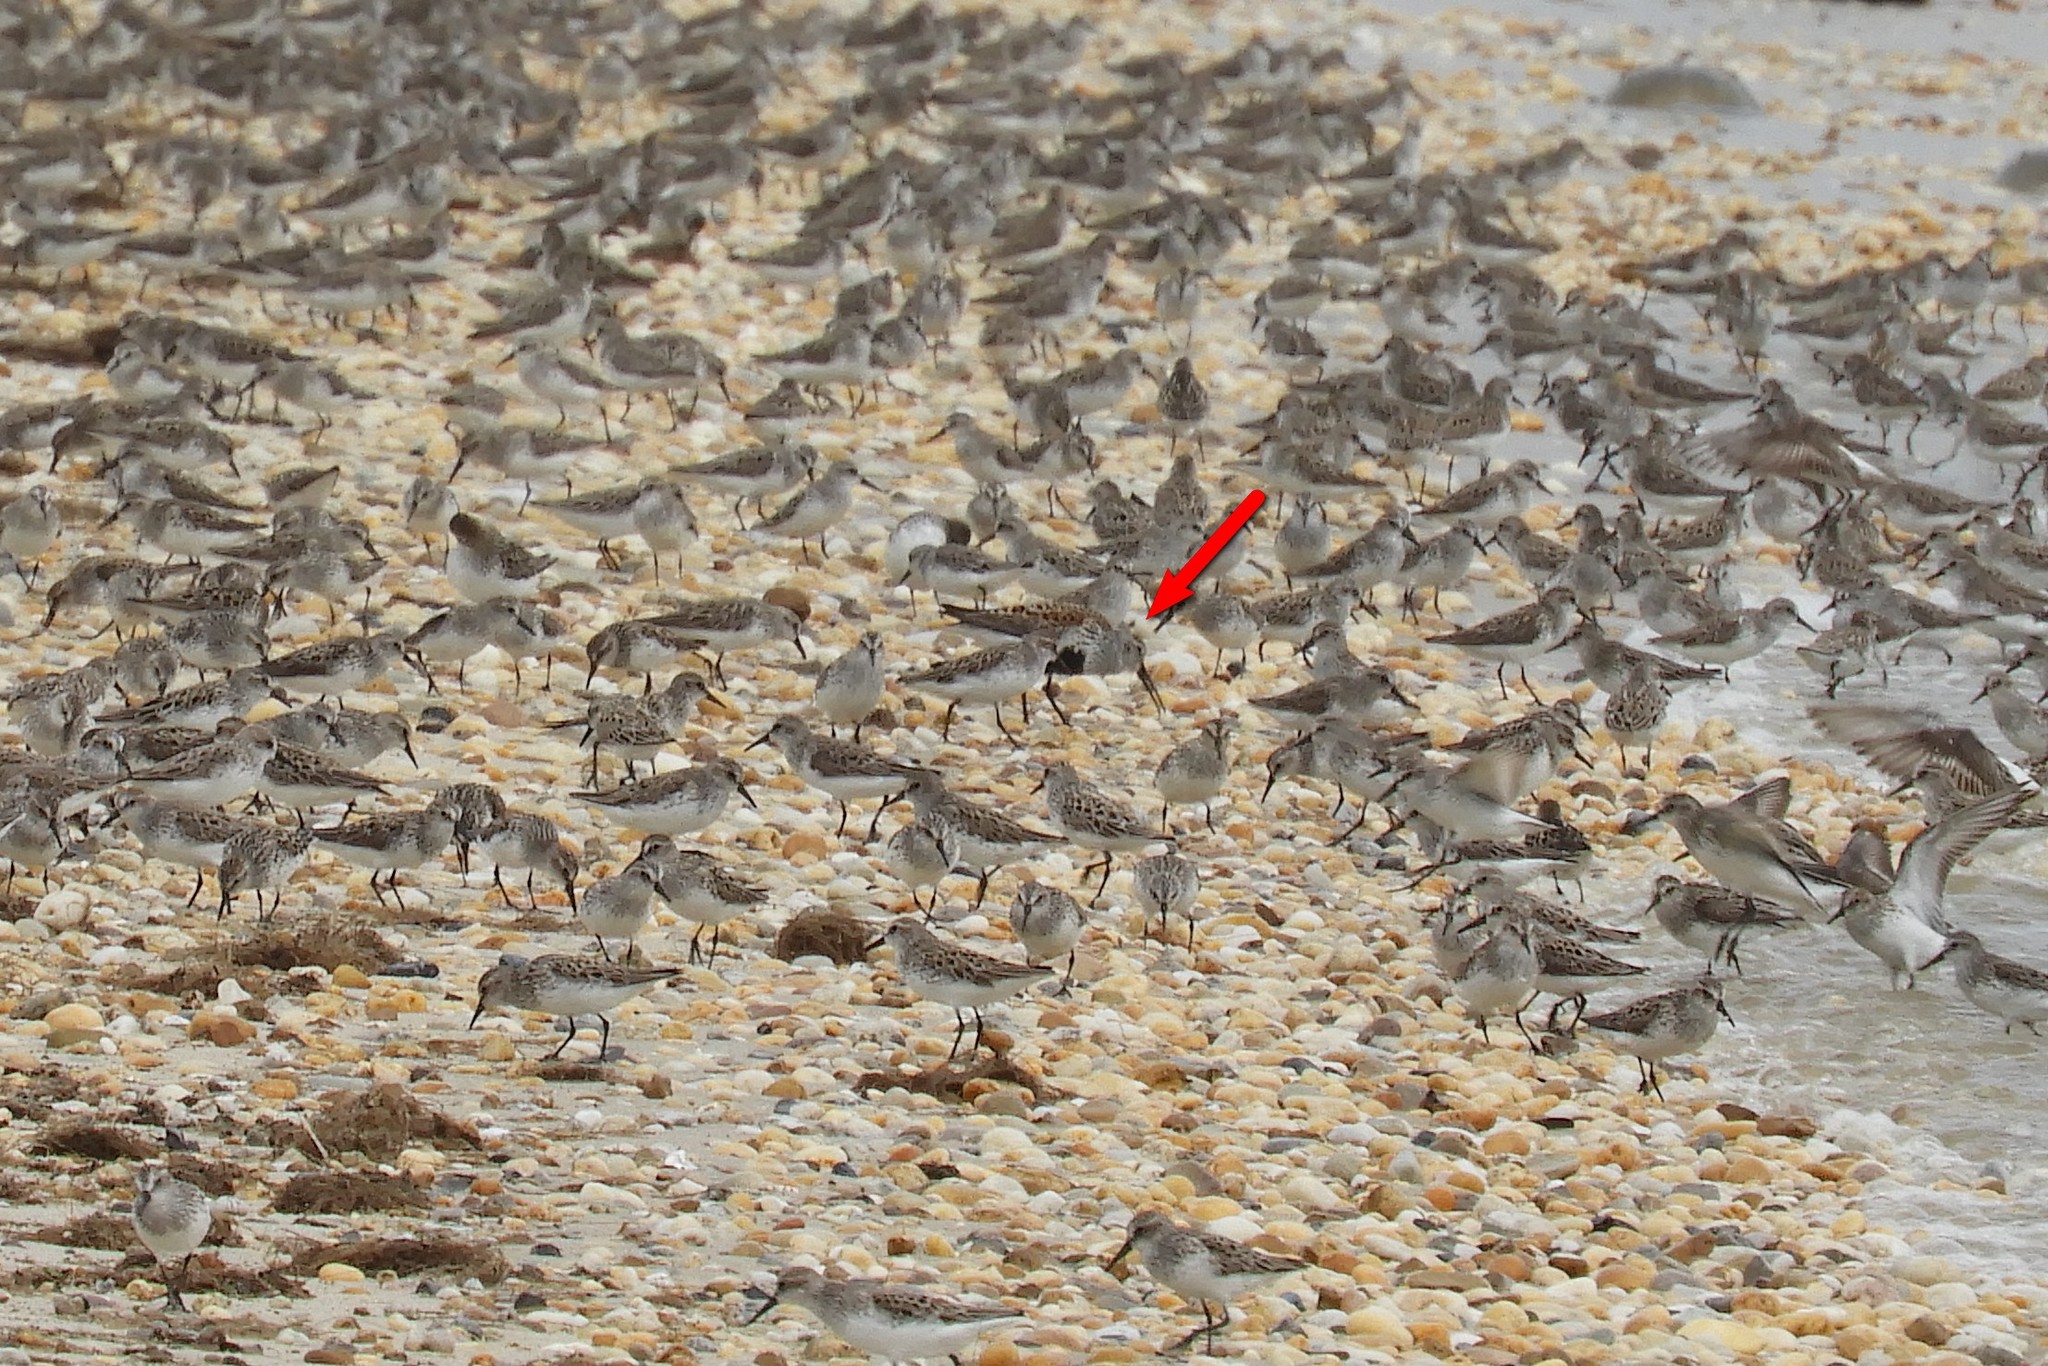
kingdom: Animalia
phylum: Chordata
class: Aves
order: Charadriiformes
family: Scolopacidae
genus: Calidris
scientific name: Calidris alpina
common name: Dunlin
